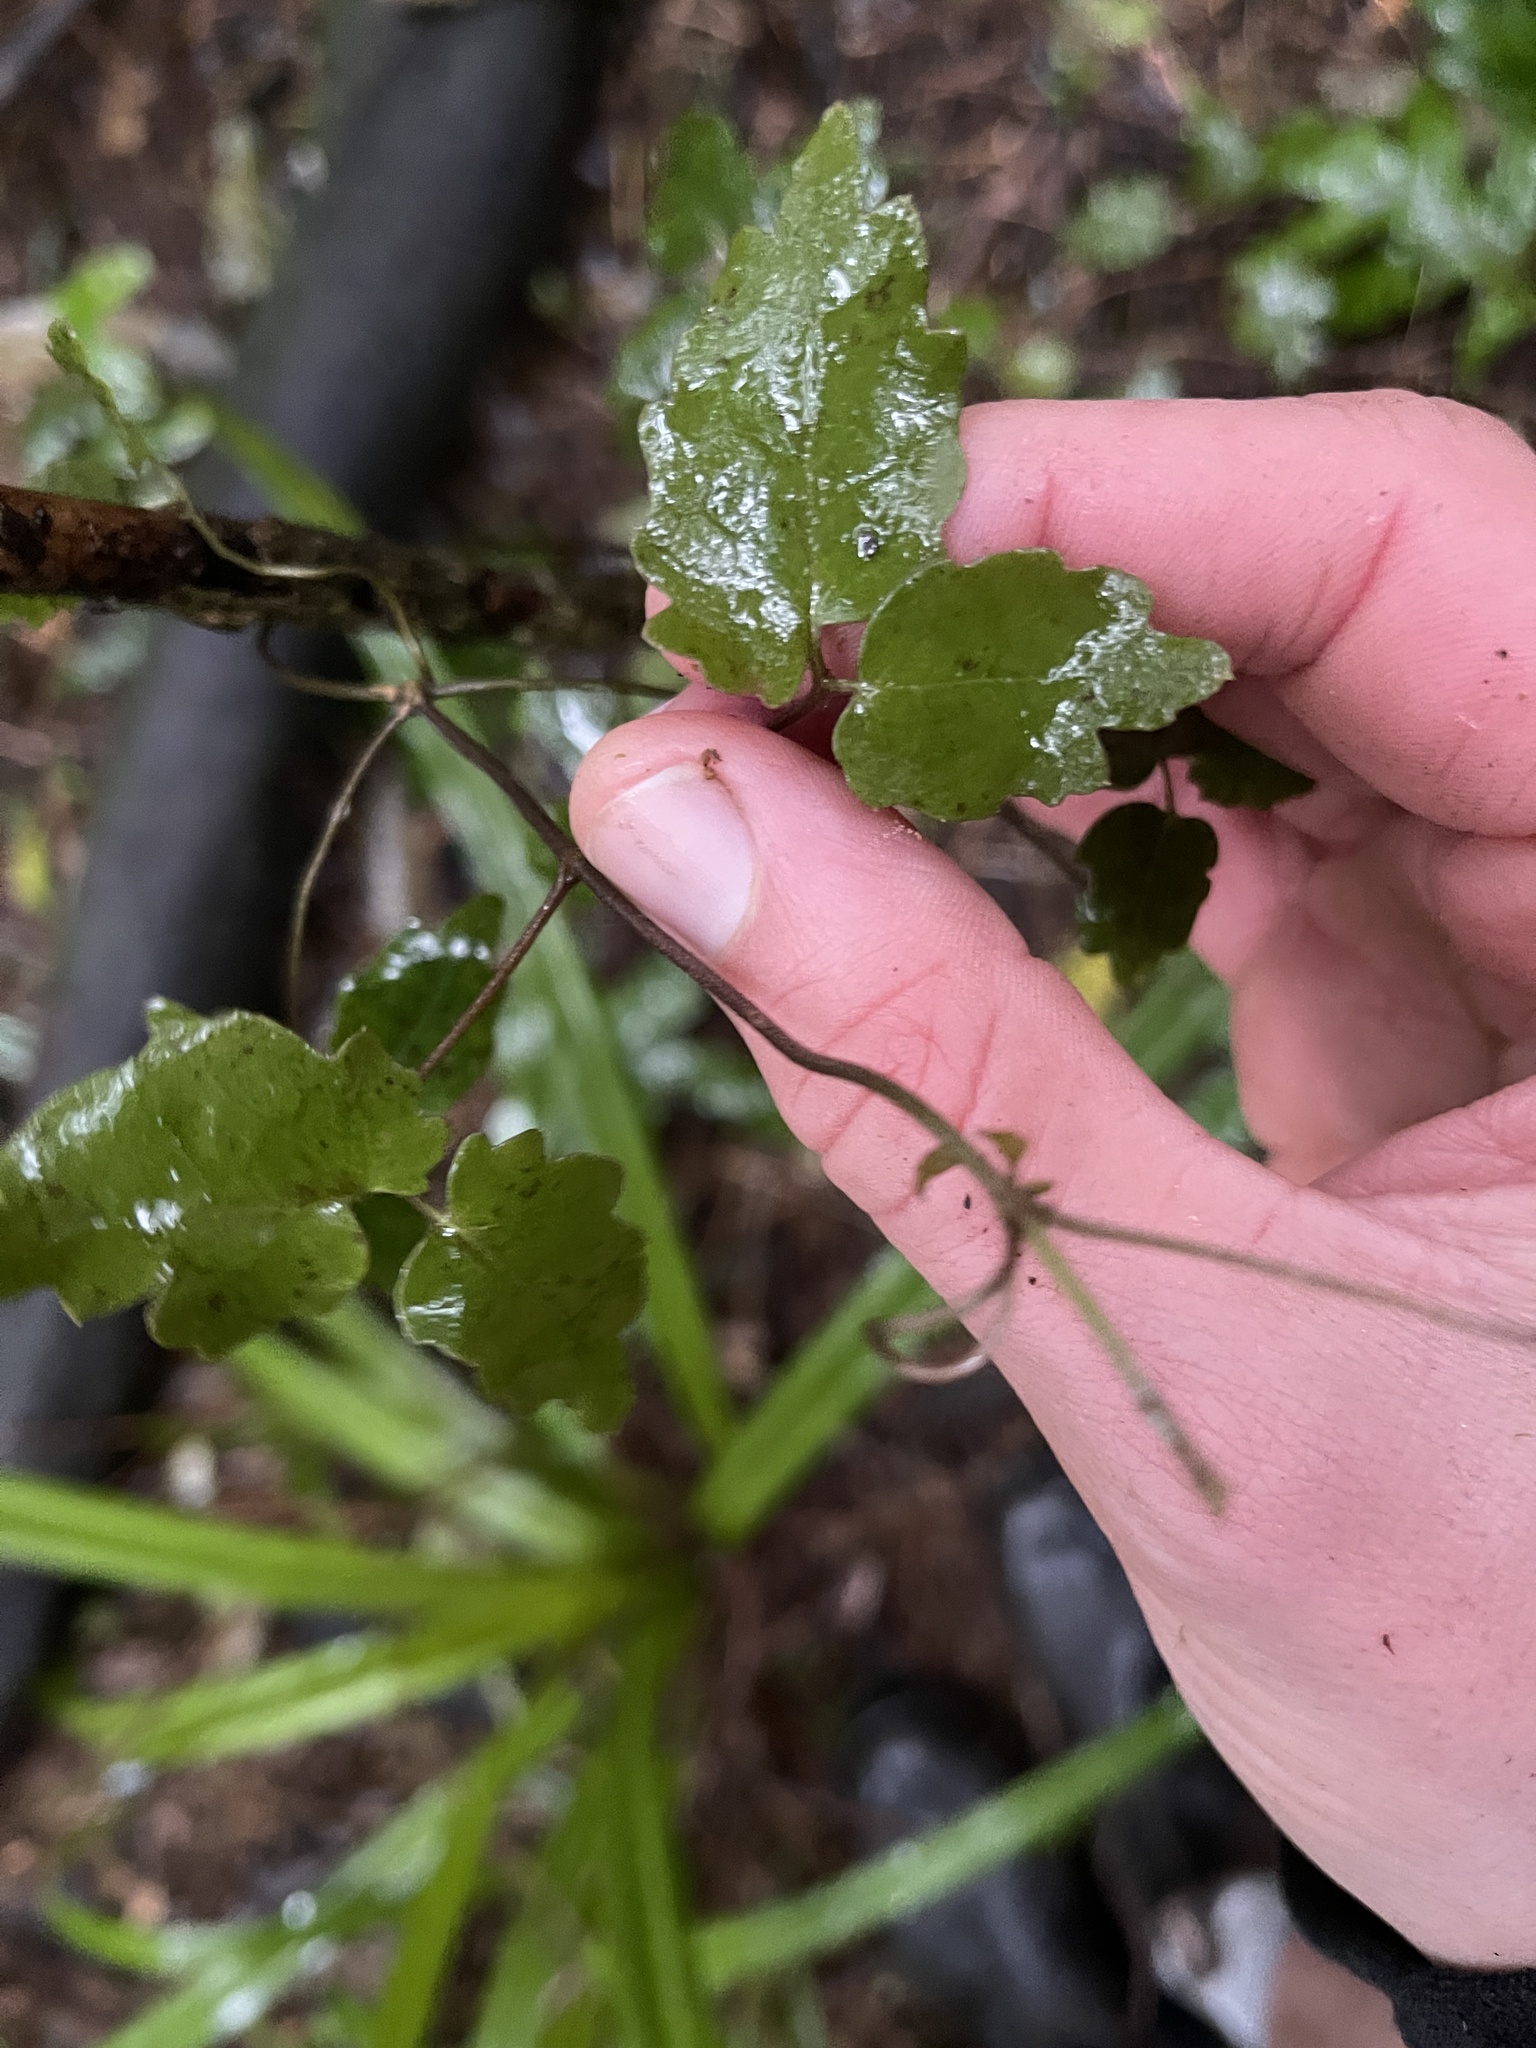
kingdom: Plantae
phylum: Tracheophyta
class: Magnoliopsida
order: Ranunculales
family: Ranunculaceae
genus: Clematis
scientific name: Clematis paniculata
